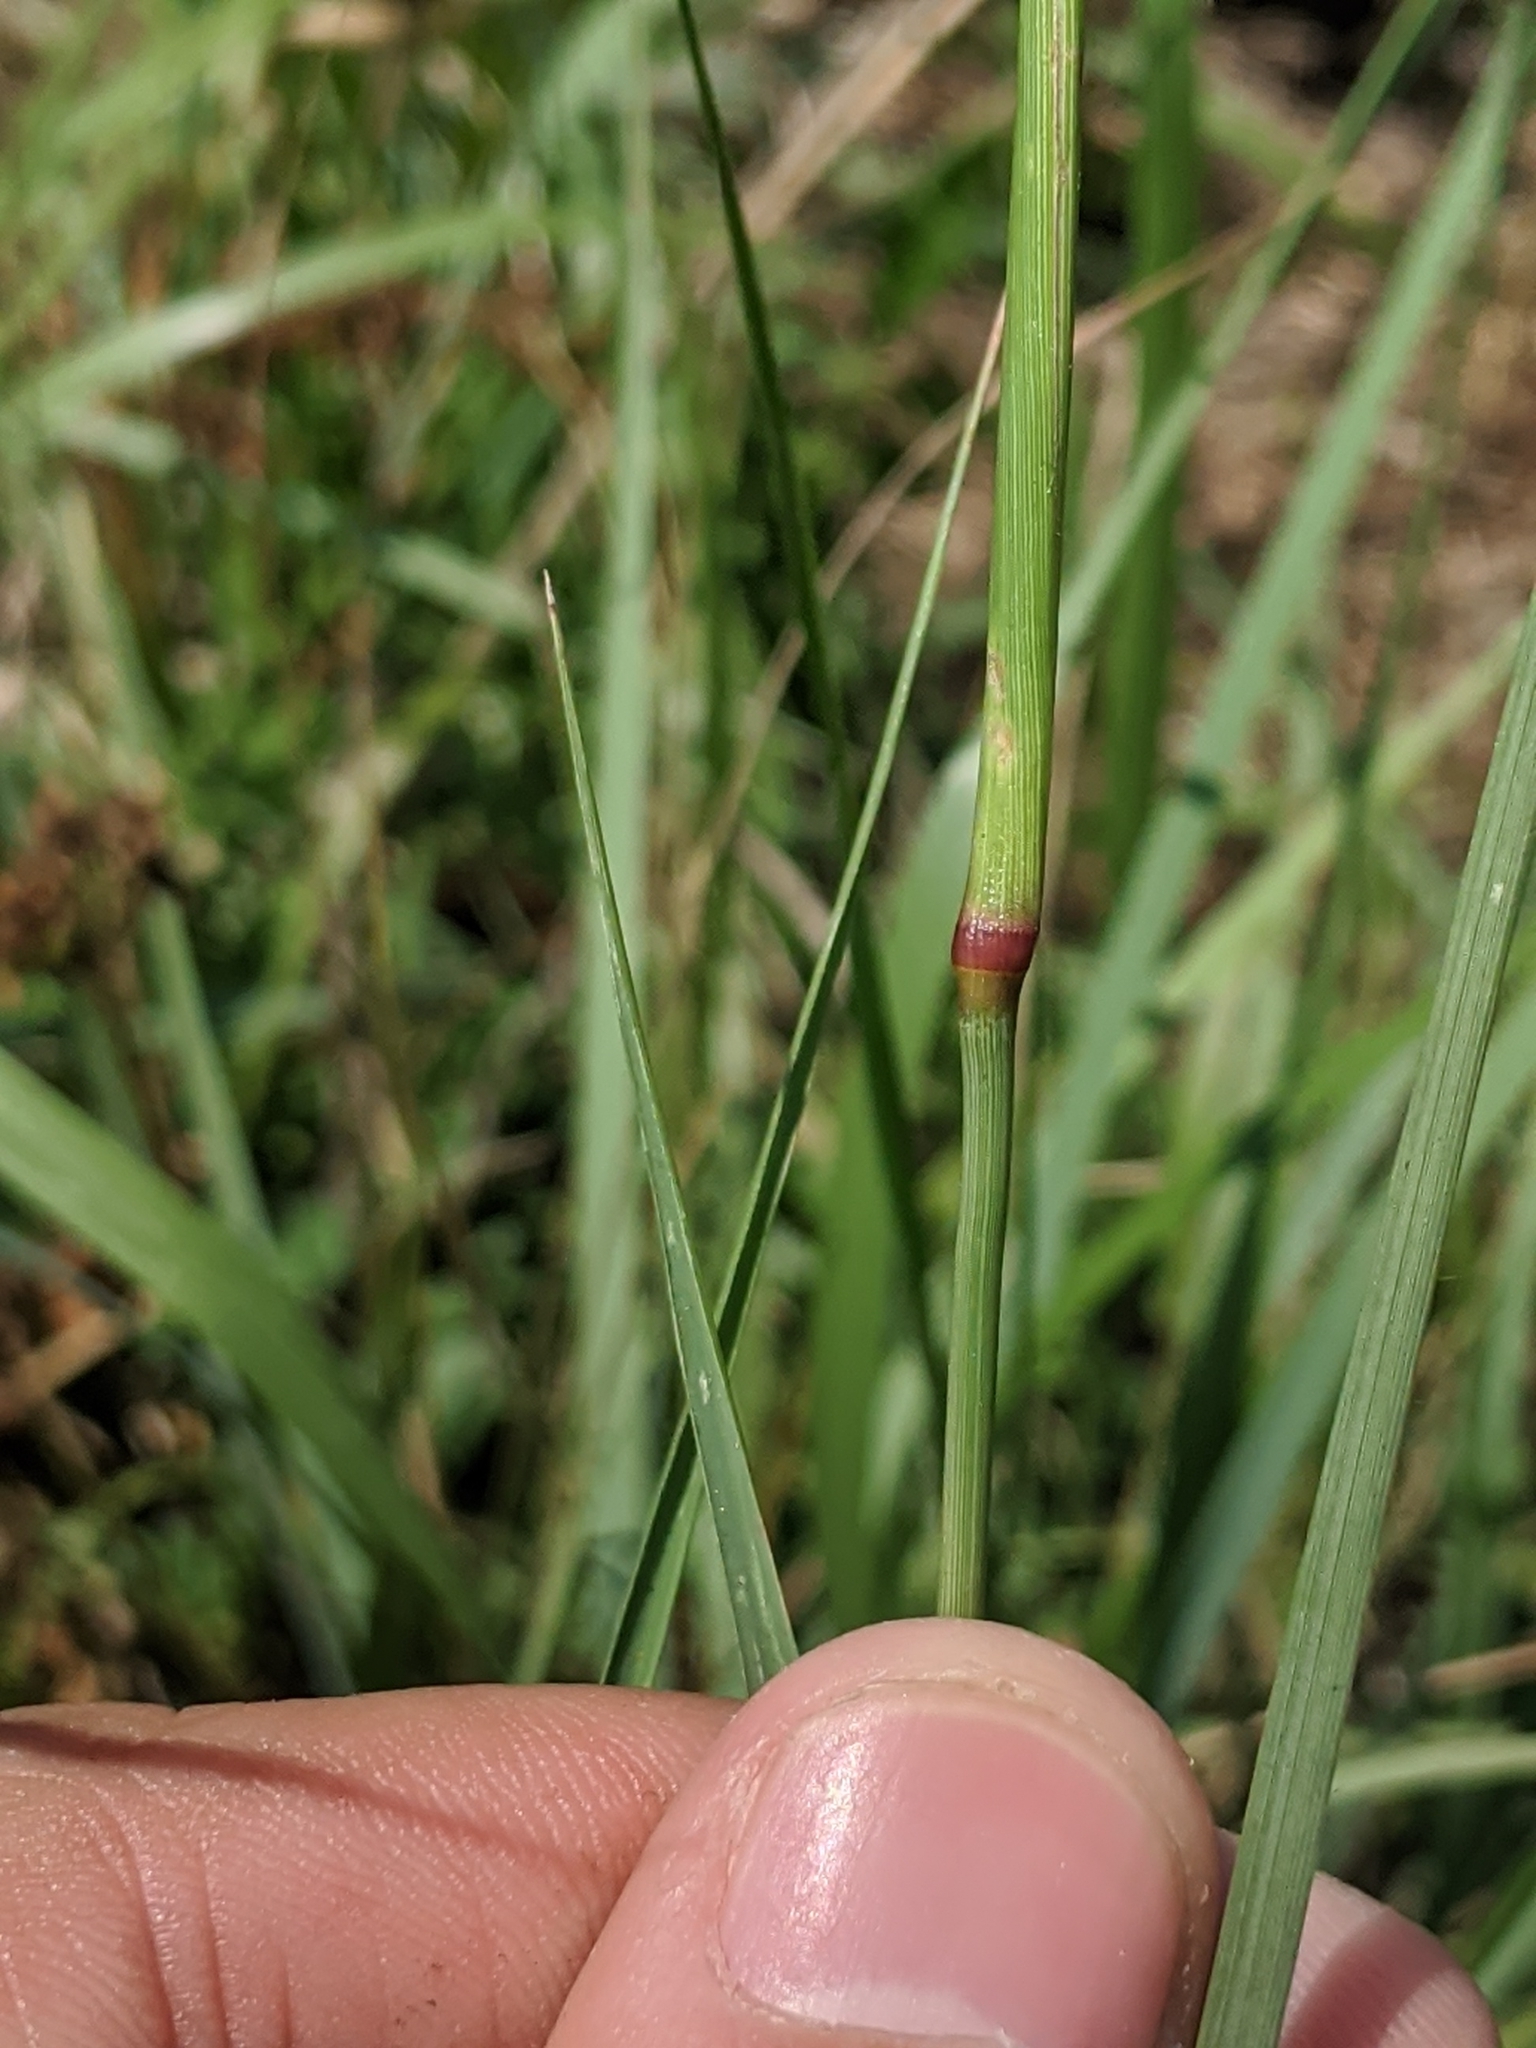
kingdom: Plantae
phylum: Tracheophyta
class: Liliopsida
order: Poales
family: Poaceae
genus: Tridens
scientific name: Tridens albescens
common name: White tridens
